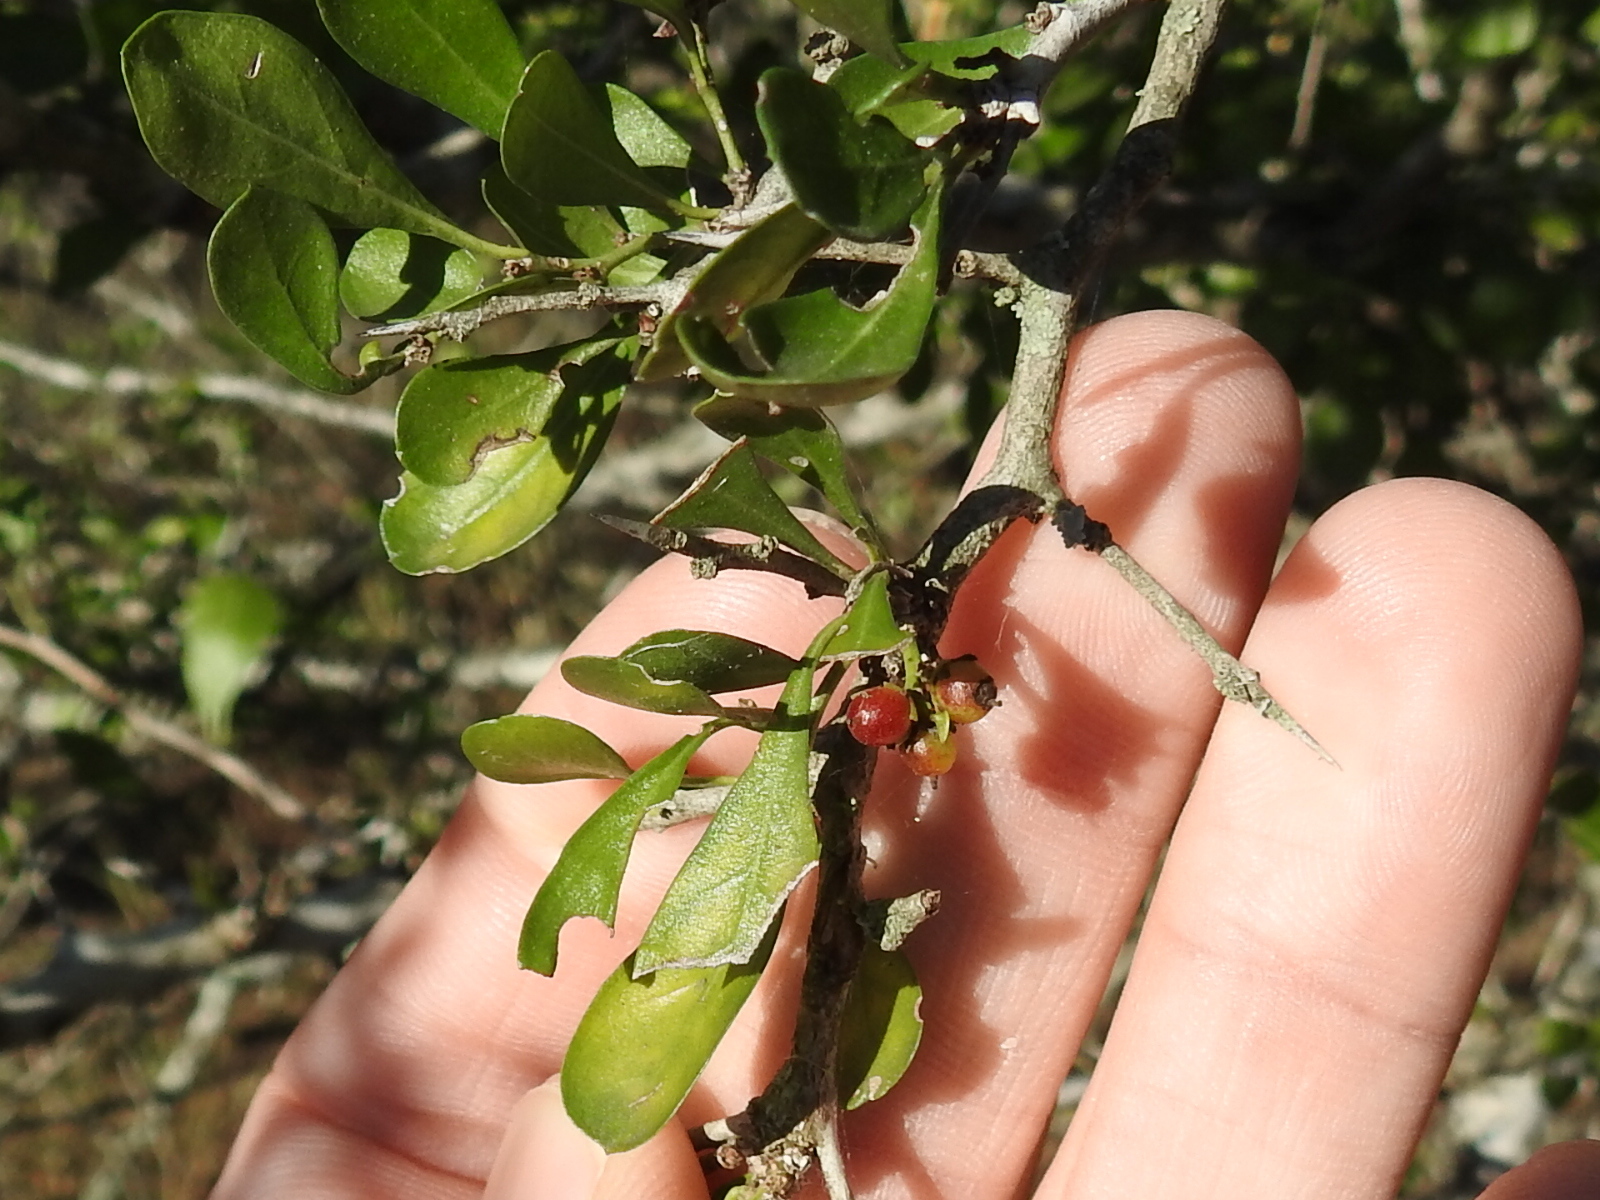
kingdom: Plantae
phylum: Tracheophyta
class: Magnoliopsida
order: Rosales
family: Rhamnaceae
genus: Condalia
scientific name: Condalia hookeri
